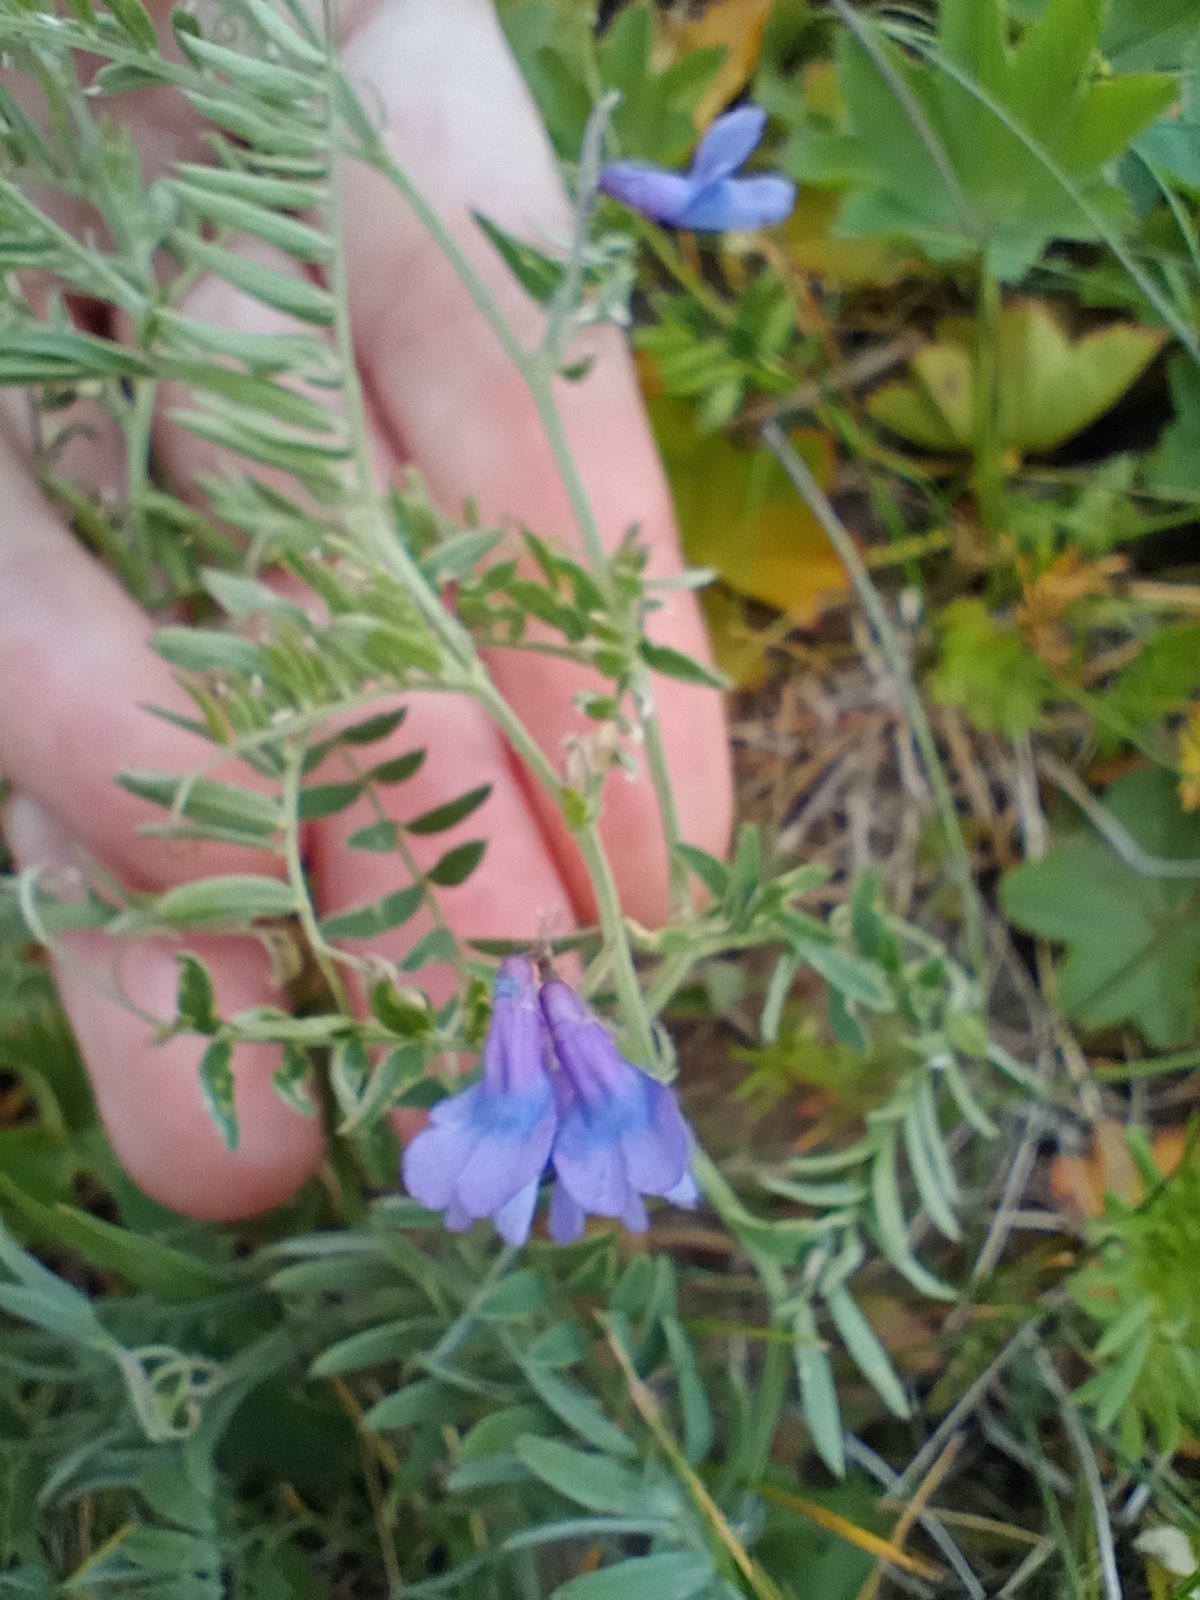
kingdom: Plantae
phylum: Tracheophyta
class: Magnoliopsida
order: Fabales
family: Fabaceae
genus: Vicia
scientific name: Vicia cracca
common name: Bird vetch
